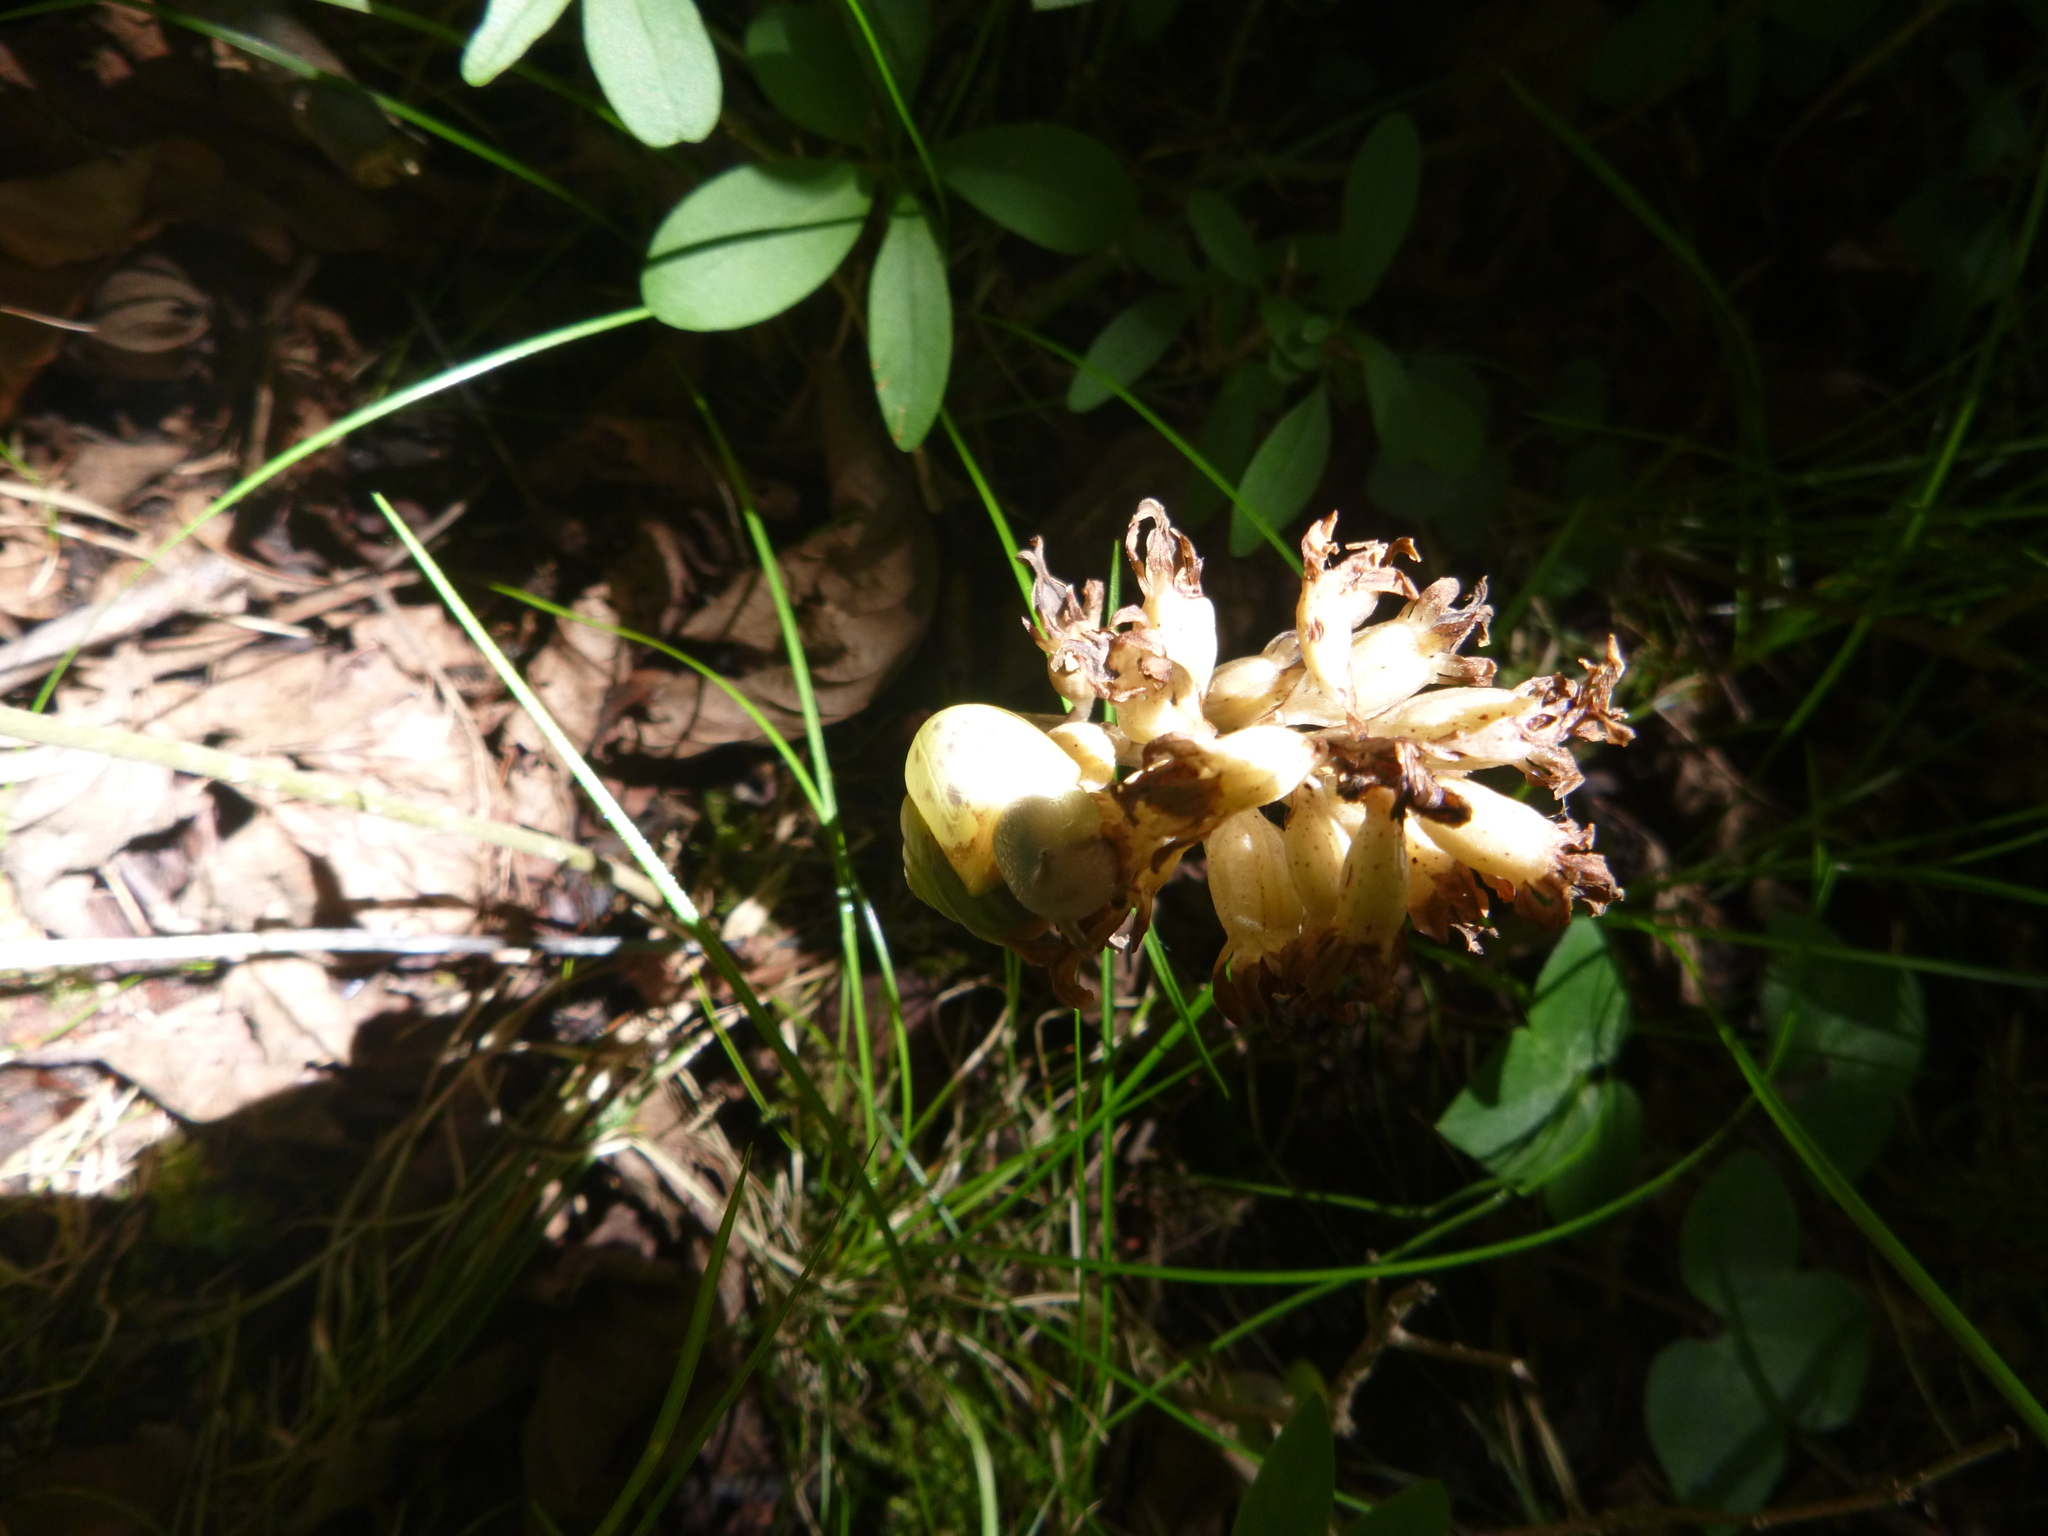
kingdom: Animalia
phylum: Mollusca
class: Gastropoda
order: Stylommatophora
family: Camaenidae
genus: Fruticicola
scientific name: Fruticicola fruticum
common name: Bush snail
